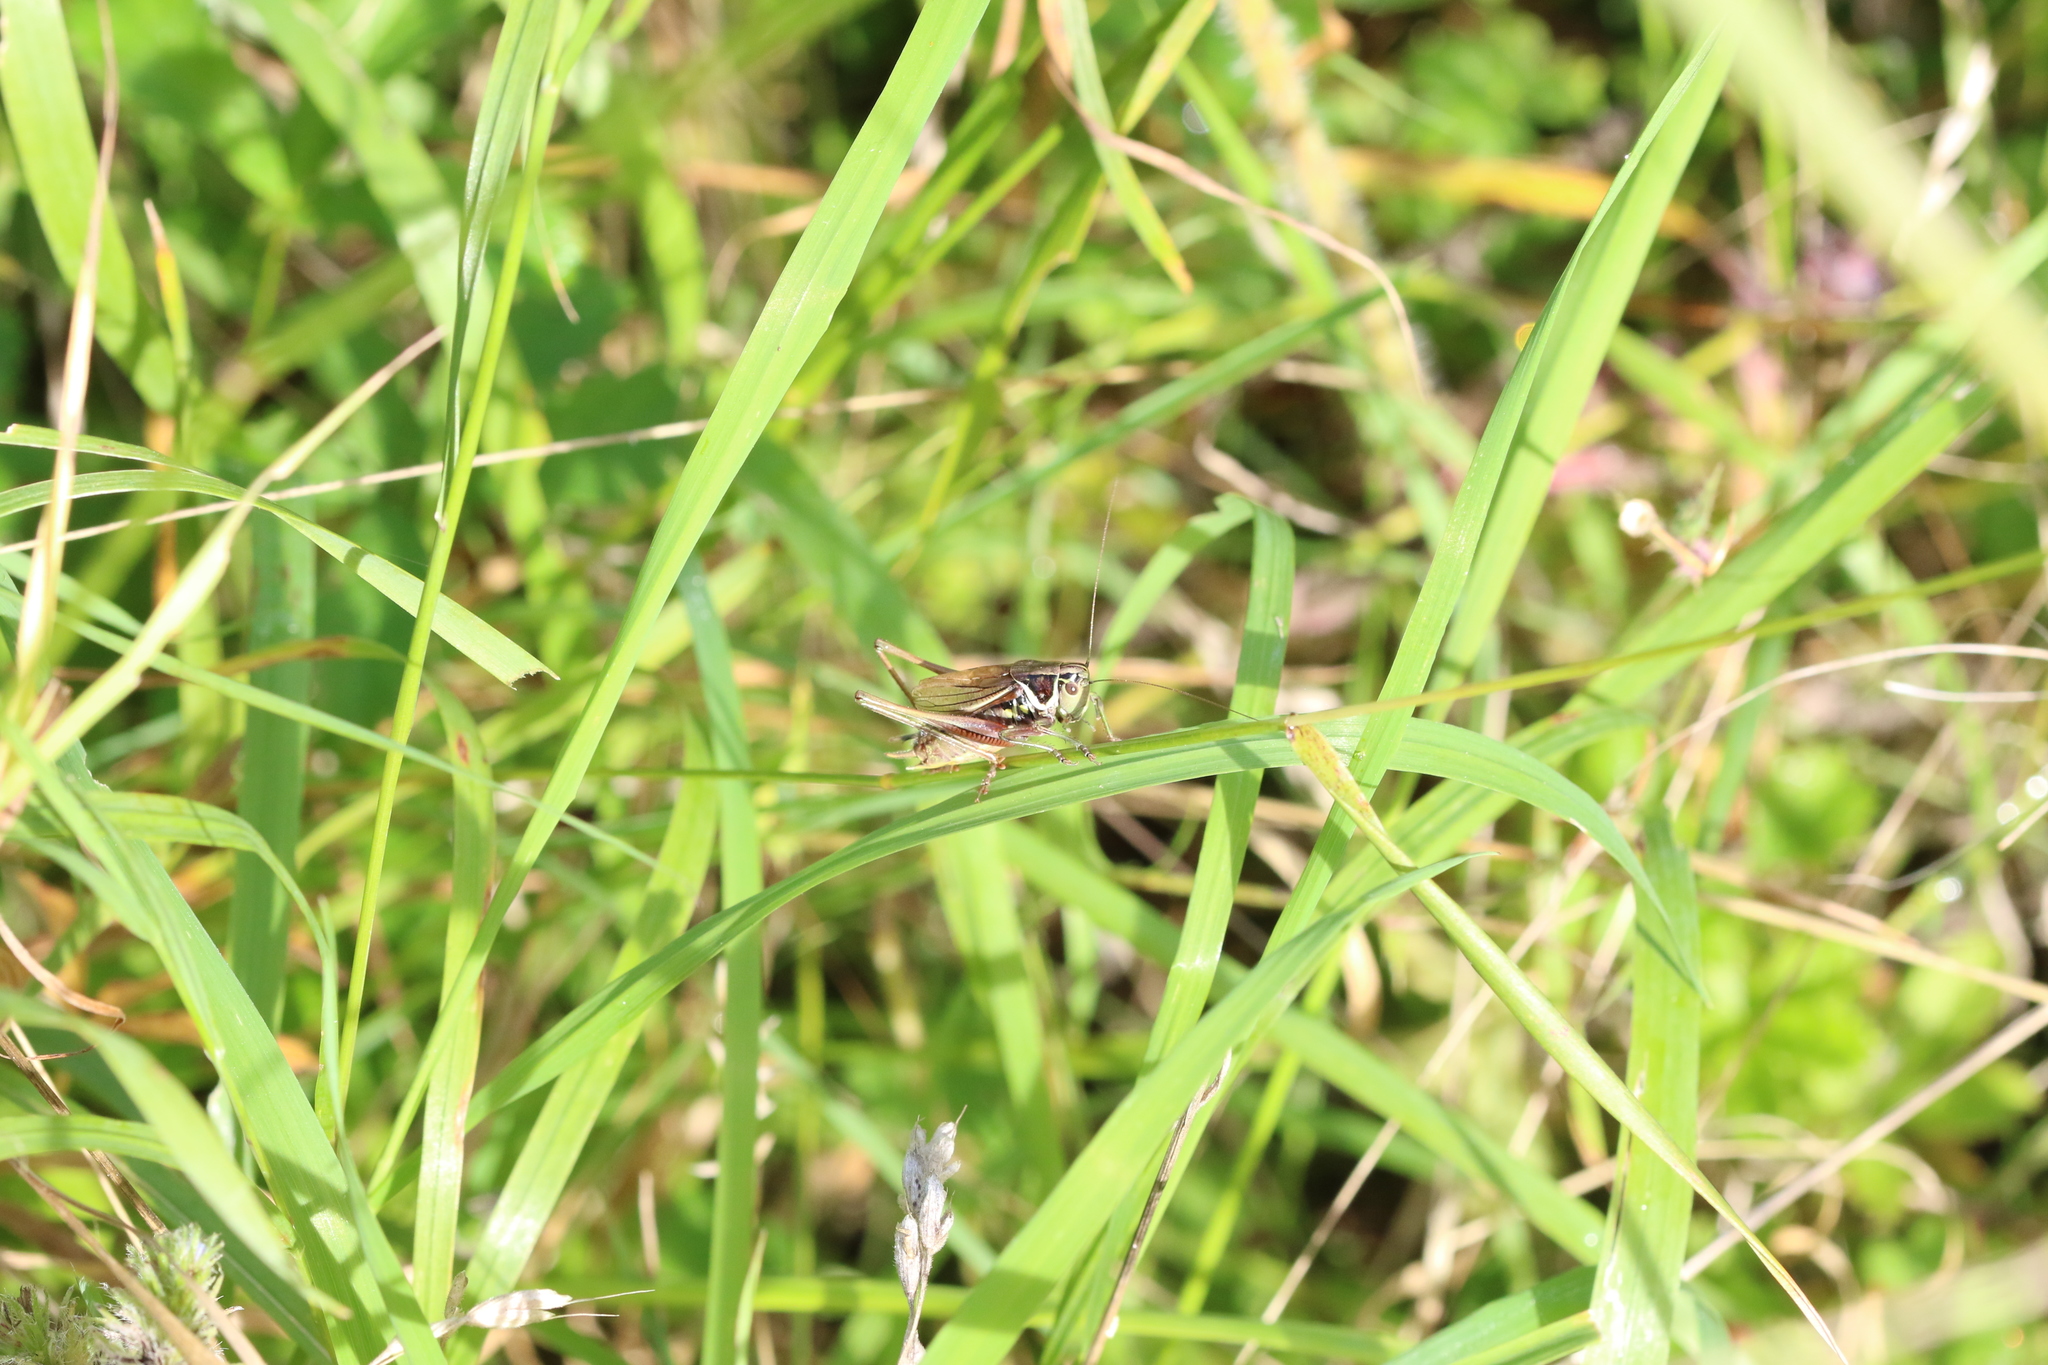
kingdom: Animalia
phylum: Arthropoda
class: Insecta
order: Orthoptera
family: Tettigoniidae
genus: Roeseliana
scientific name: Roeseliana roeselii
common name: Roesel's bush cricket
